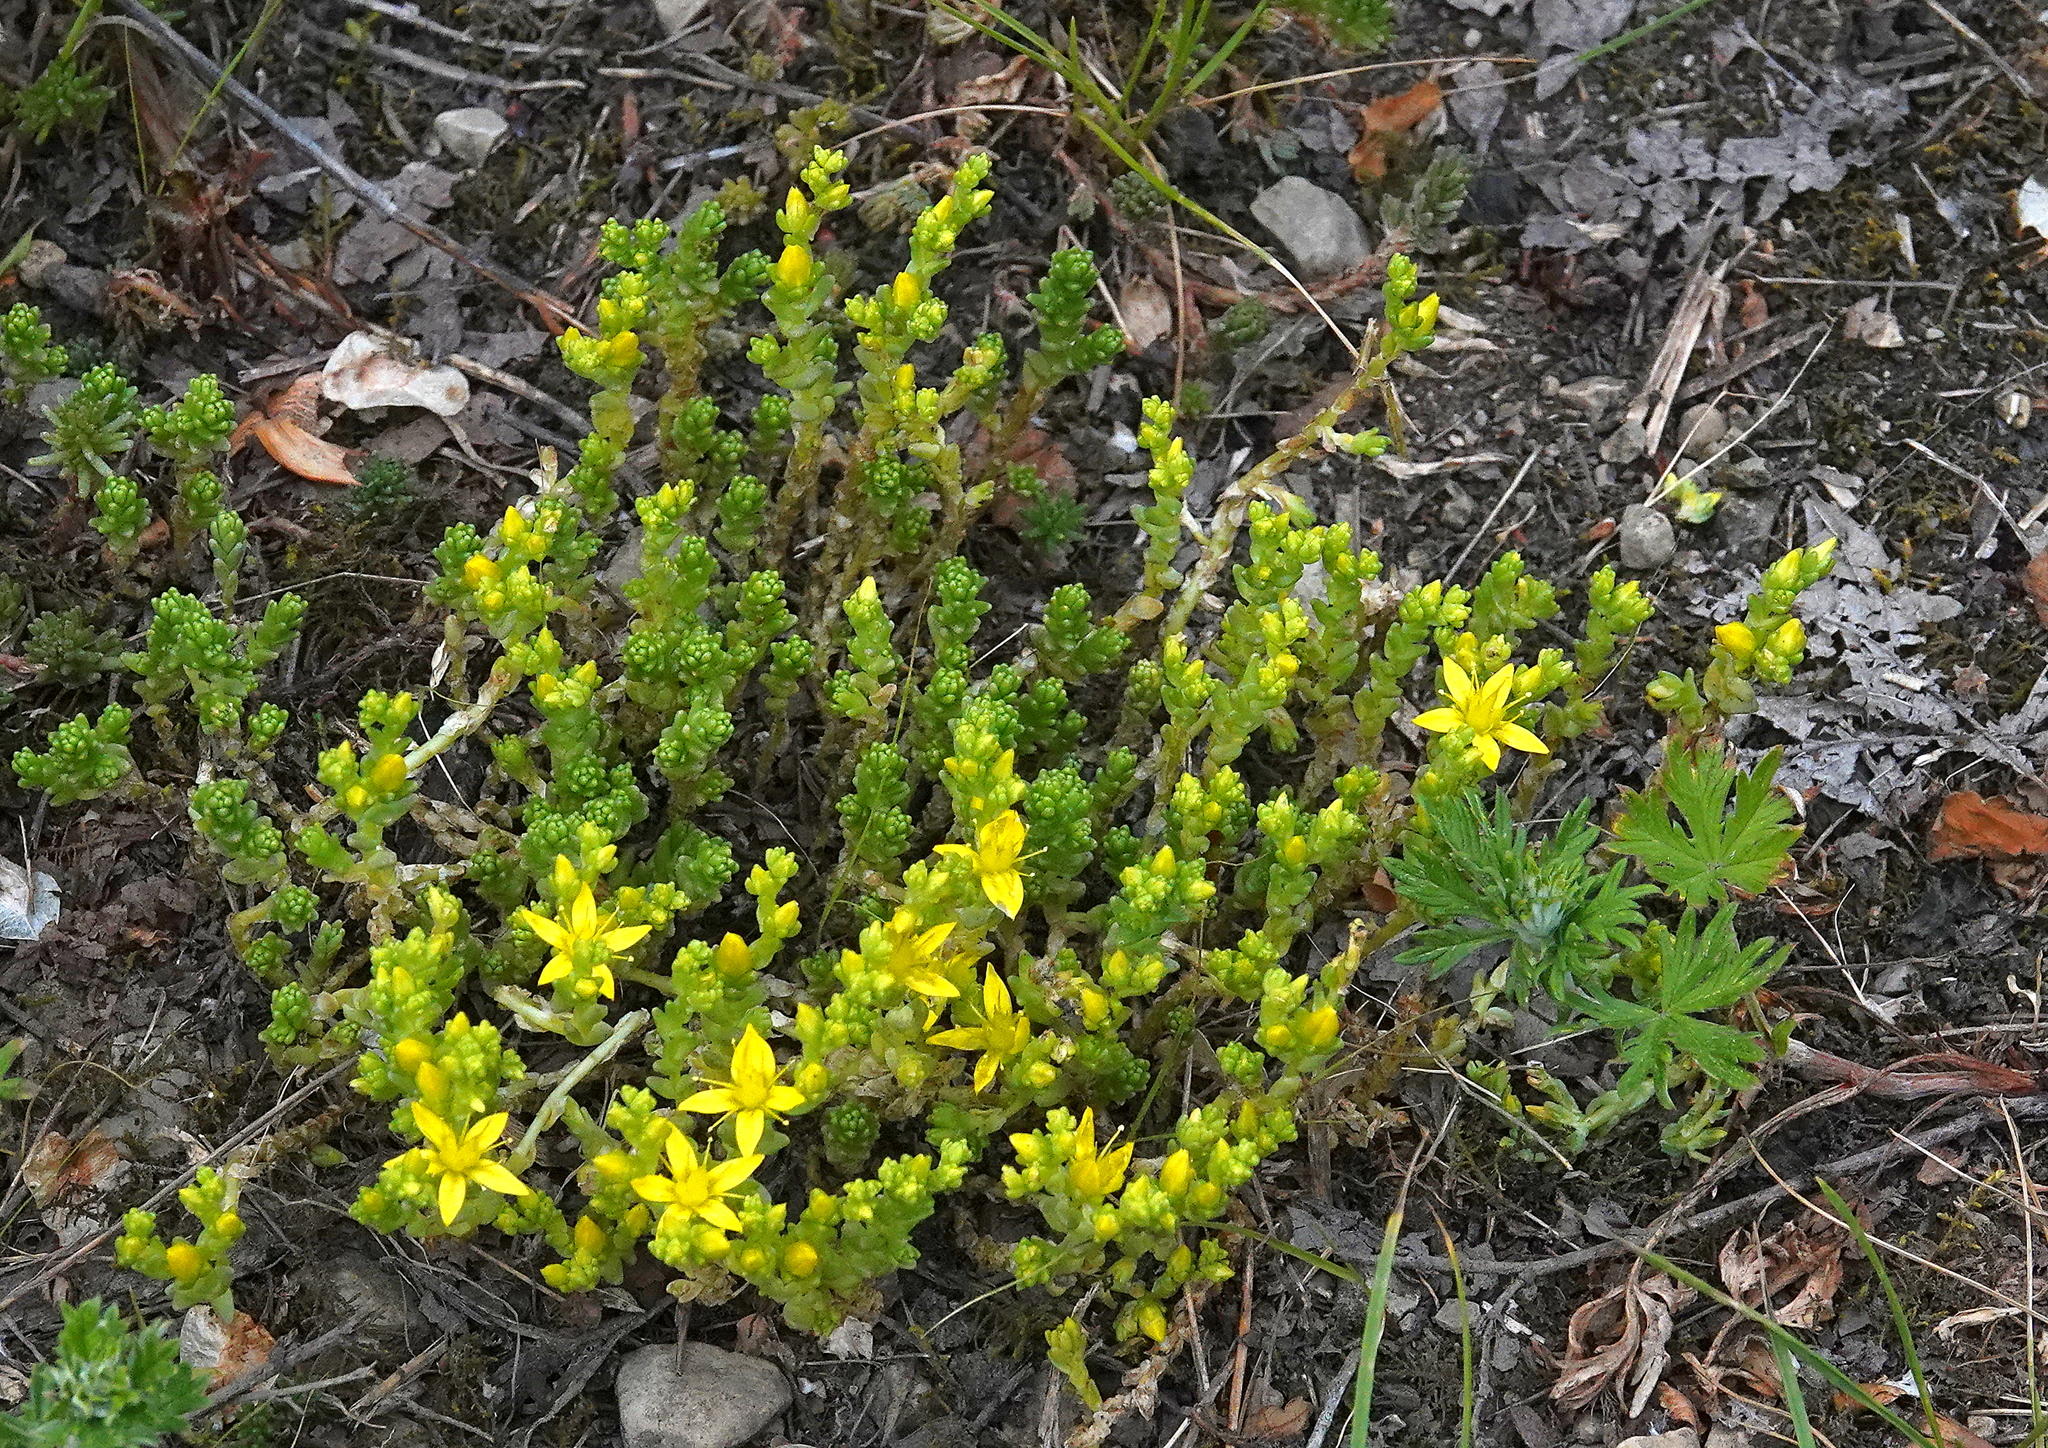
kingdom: Plantae
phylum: Tracheophyta
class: Magnoliopsida
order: Saxifragales
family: Crassulaceae
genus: Sedum
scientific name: Sedum acre
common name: Biting stonecrop
